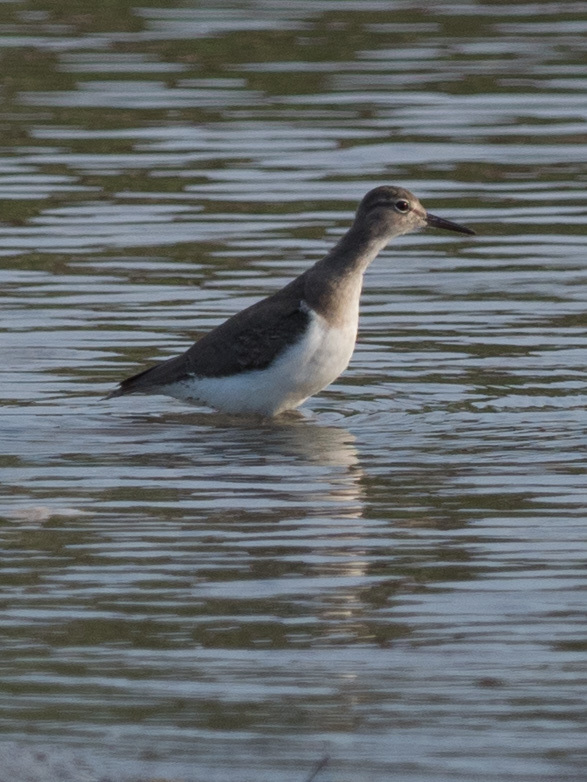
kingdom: Animalia
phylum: Chordata
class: Aves
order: Charadriiformes
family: Scolopacidae
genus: Actitis
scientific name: Actitis macularius
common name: Spotted sandpiper
